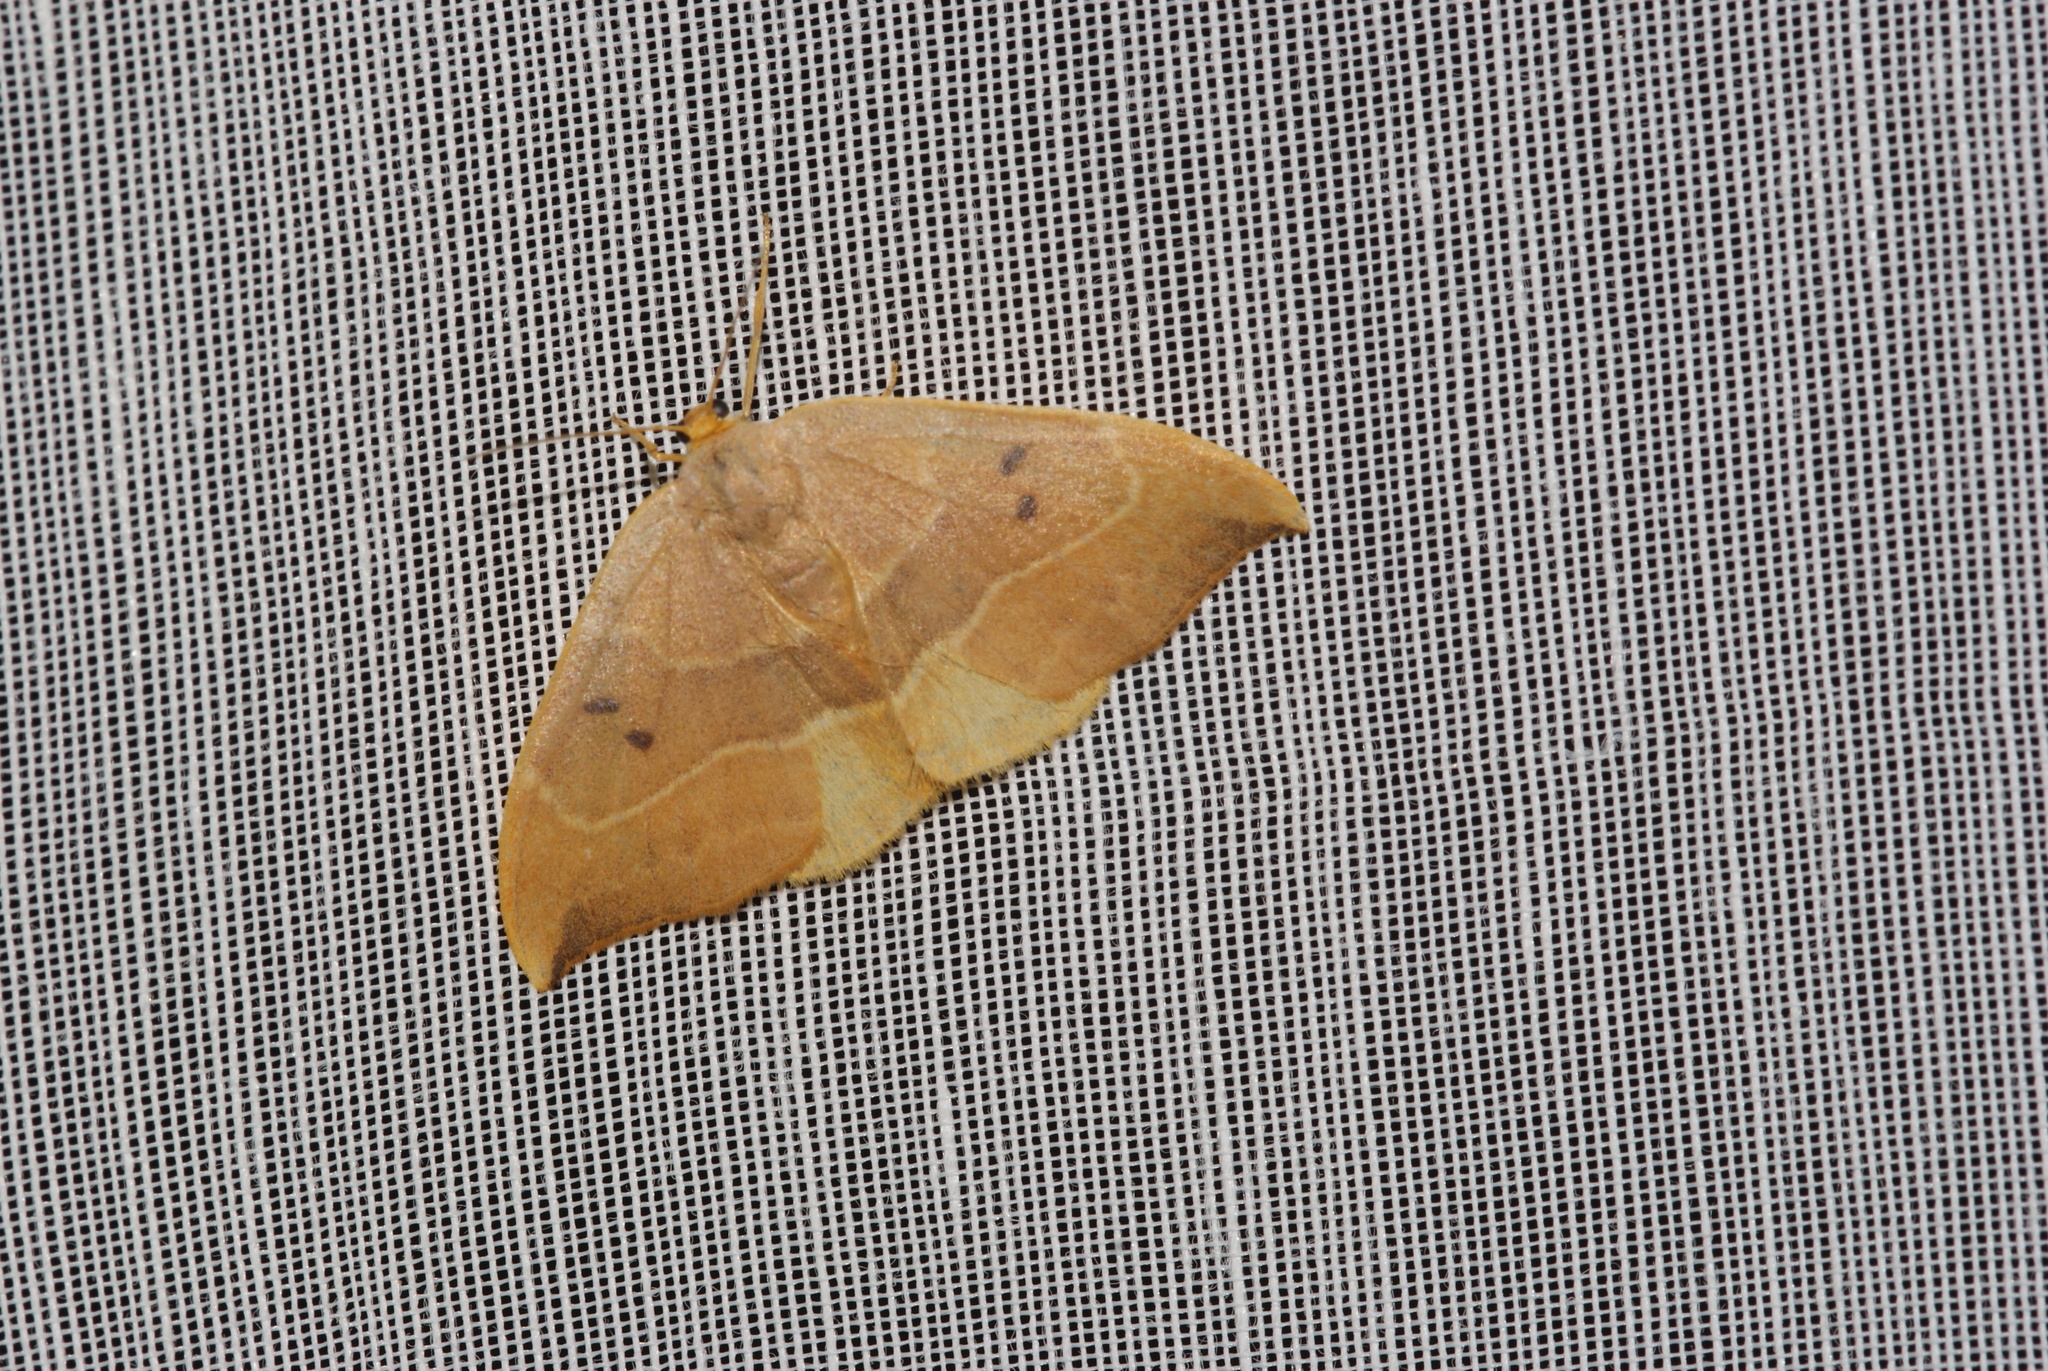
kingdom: Animalia
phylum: Arthropoda
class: Insecta
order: Lepidoptera
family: Drepanidae
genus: Watsonalla
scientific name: Watsonalla binaria
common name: Oak hook-tip
